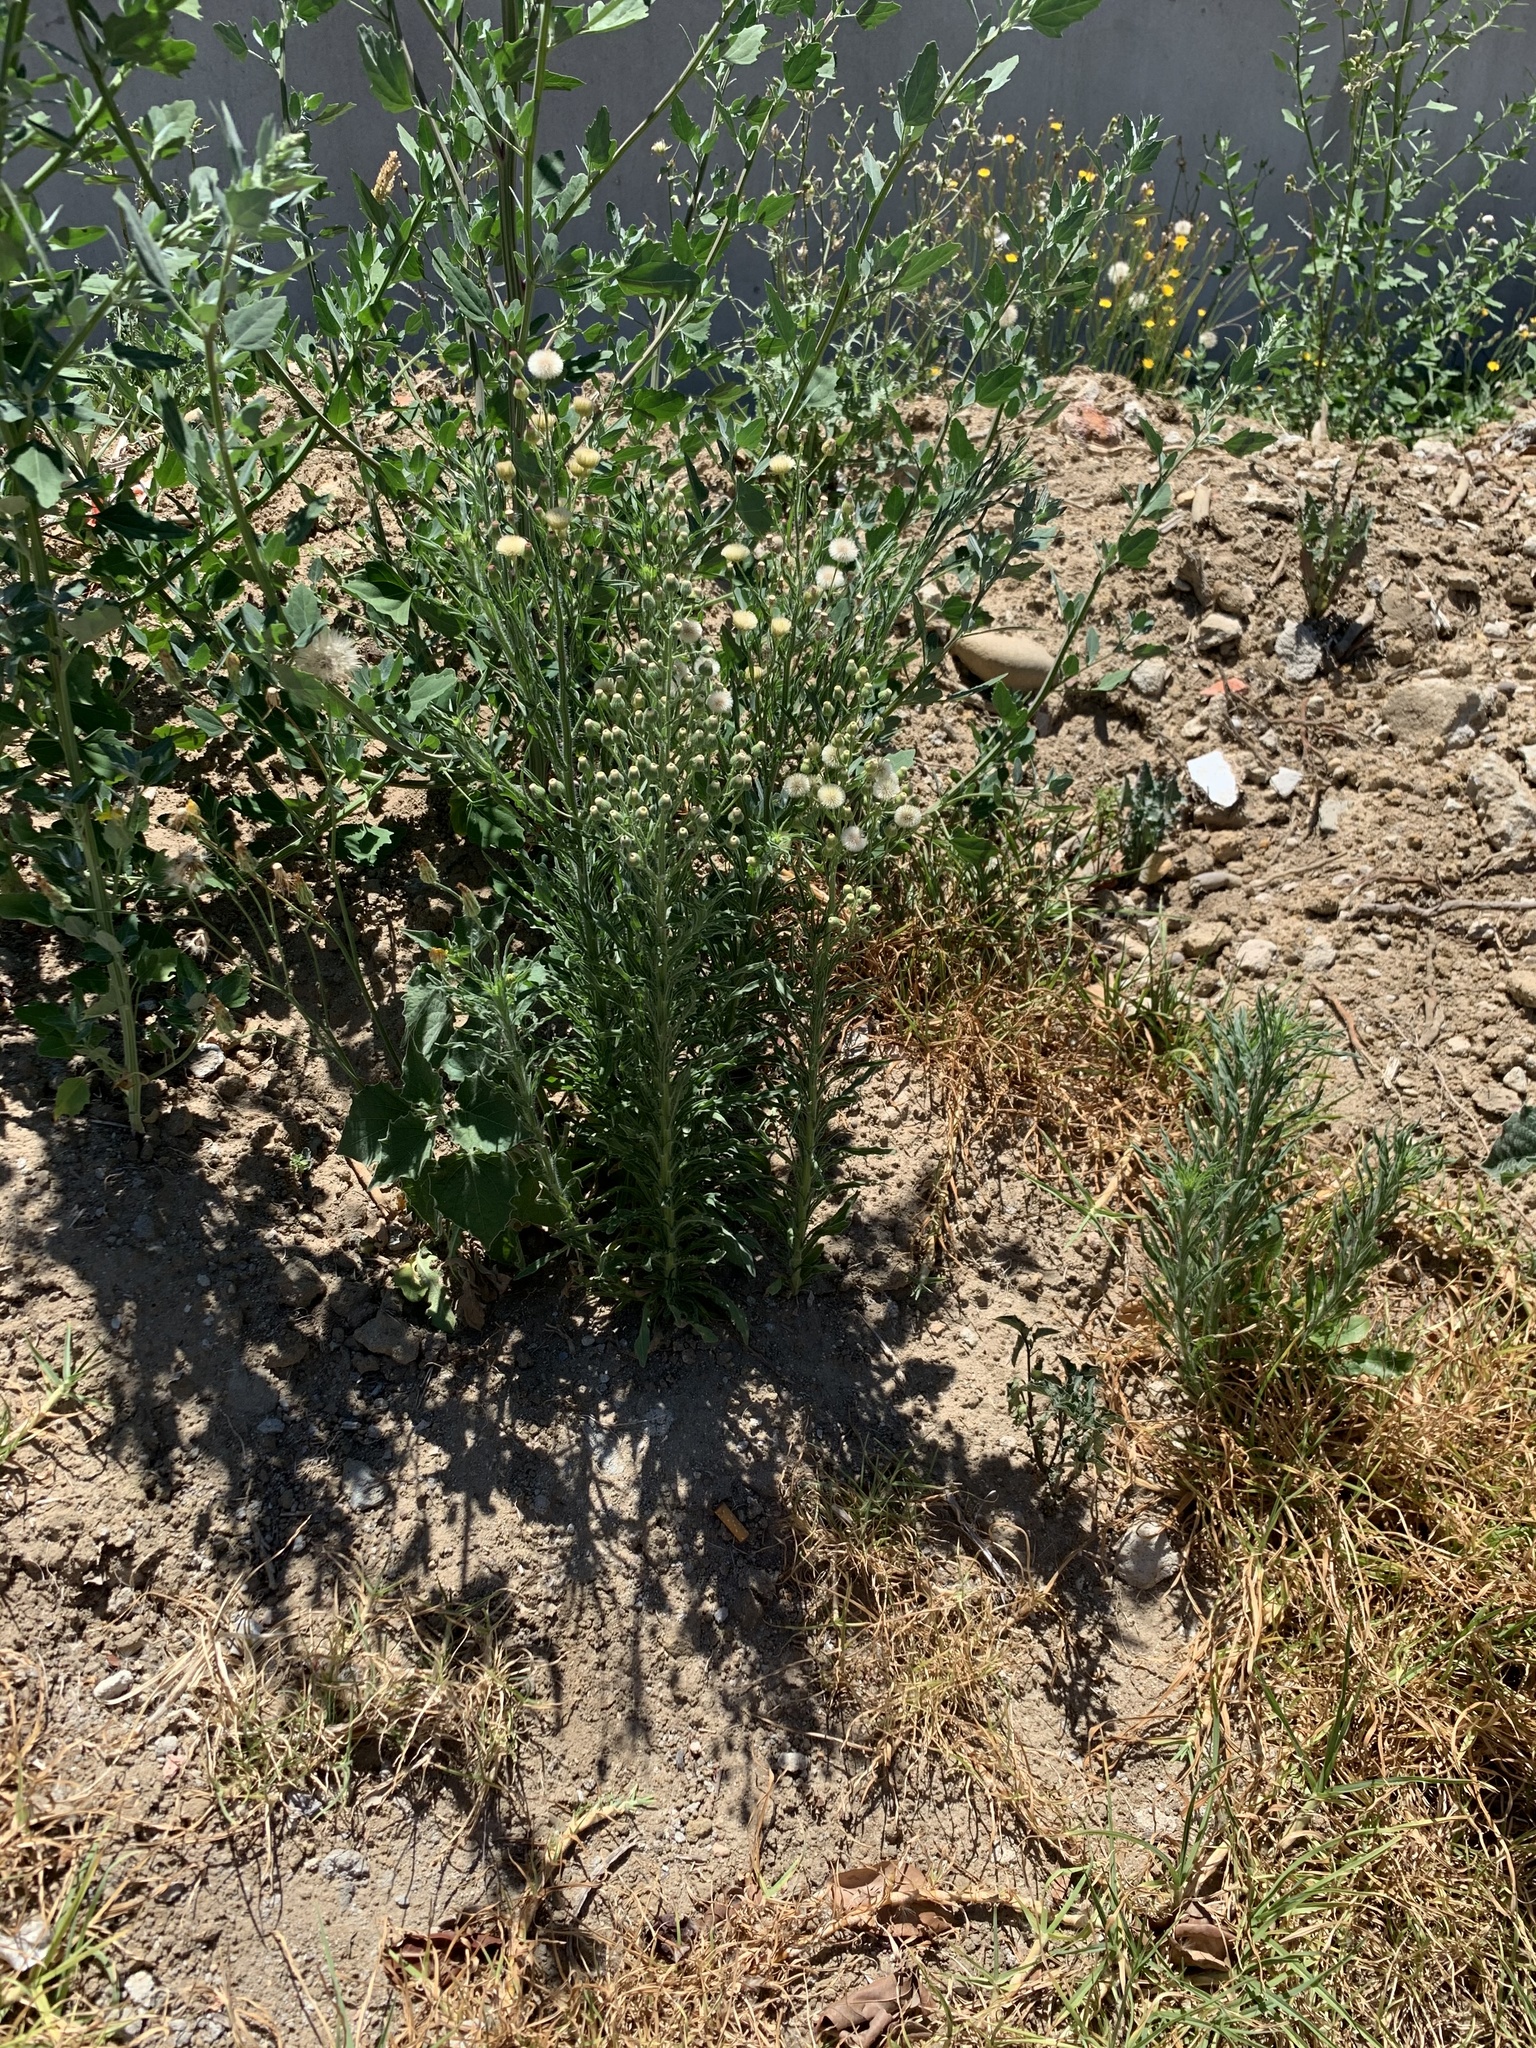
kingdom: Plantae
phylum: Tracheophyta
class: Magnoliopsida
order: Asterales
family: Asteraceae
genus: Erigeron
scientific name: Erigeron bonariensis
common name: Argentine fleabane
